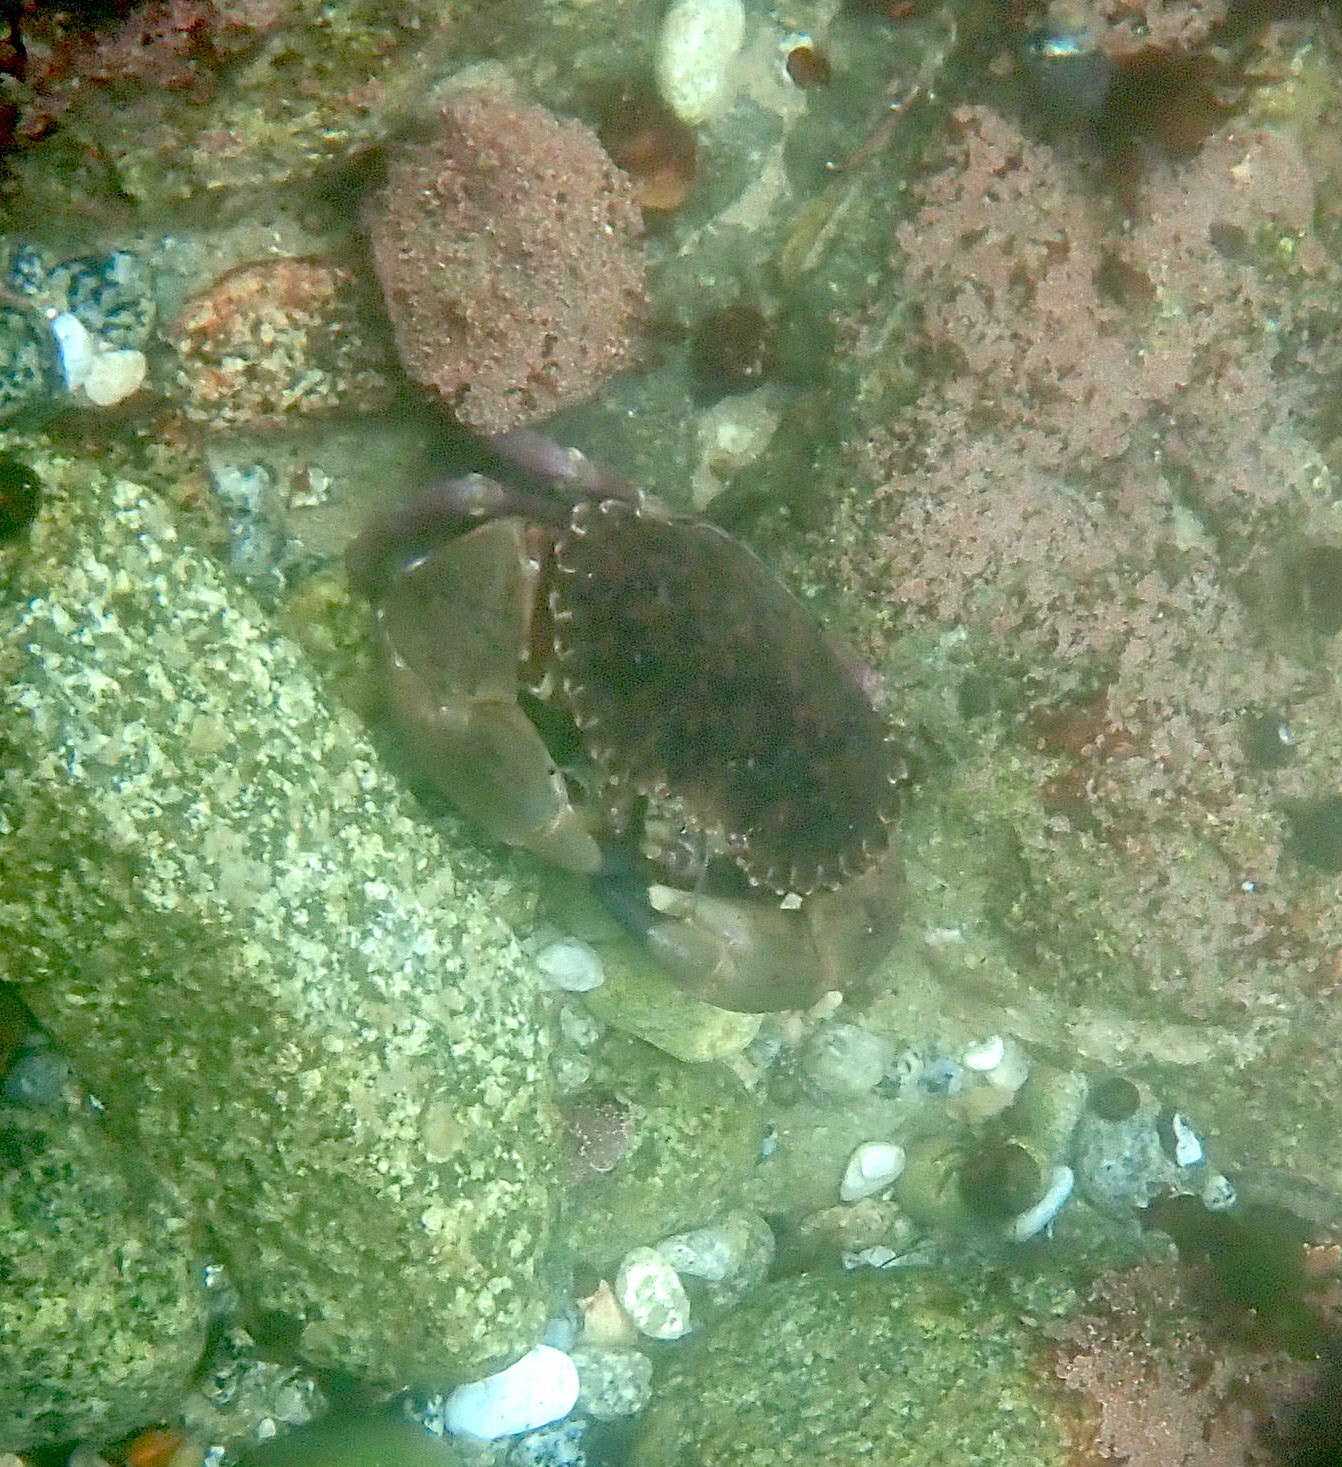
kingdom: Animalia
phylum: Arthropoda
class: Malacostraca
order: Decapoda
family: Cancridae
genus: Romaleon
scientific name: Romaleon antennarium
